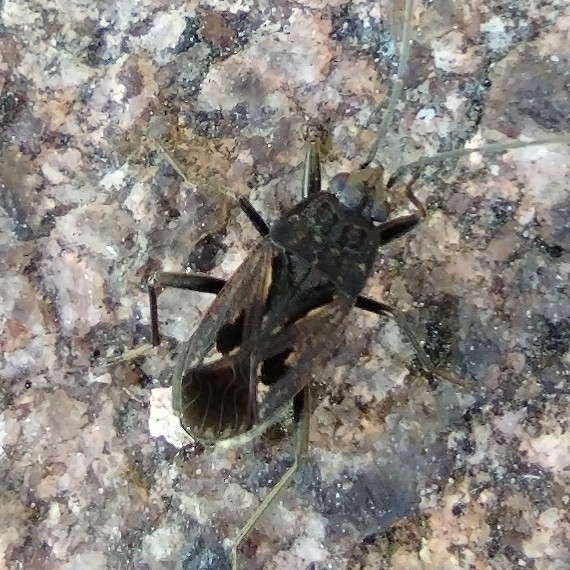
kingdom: Animalia
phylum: Arthropoda
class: Insecta
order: Hemiptera
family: Rhyparochromidae
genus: Rhyparochromus
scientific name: Rhyparochromus pini
